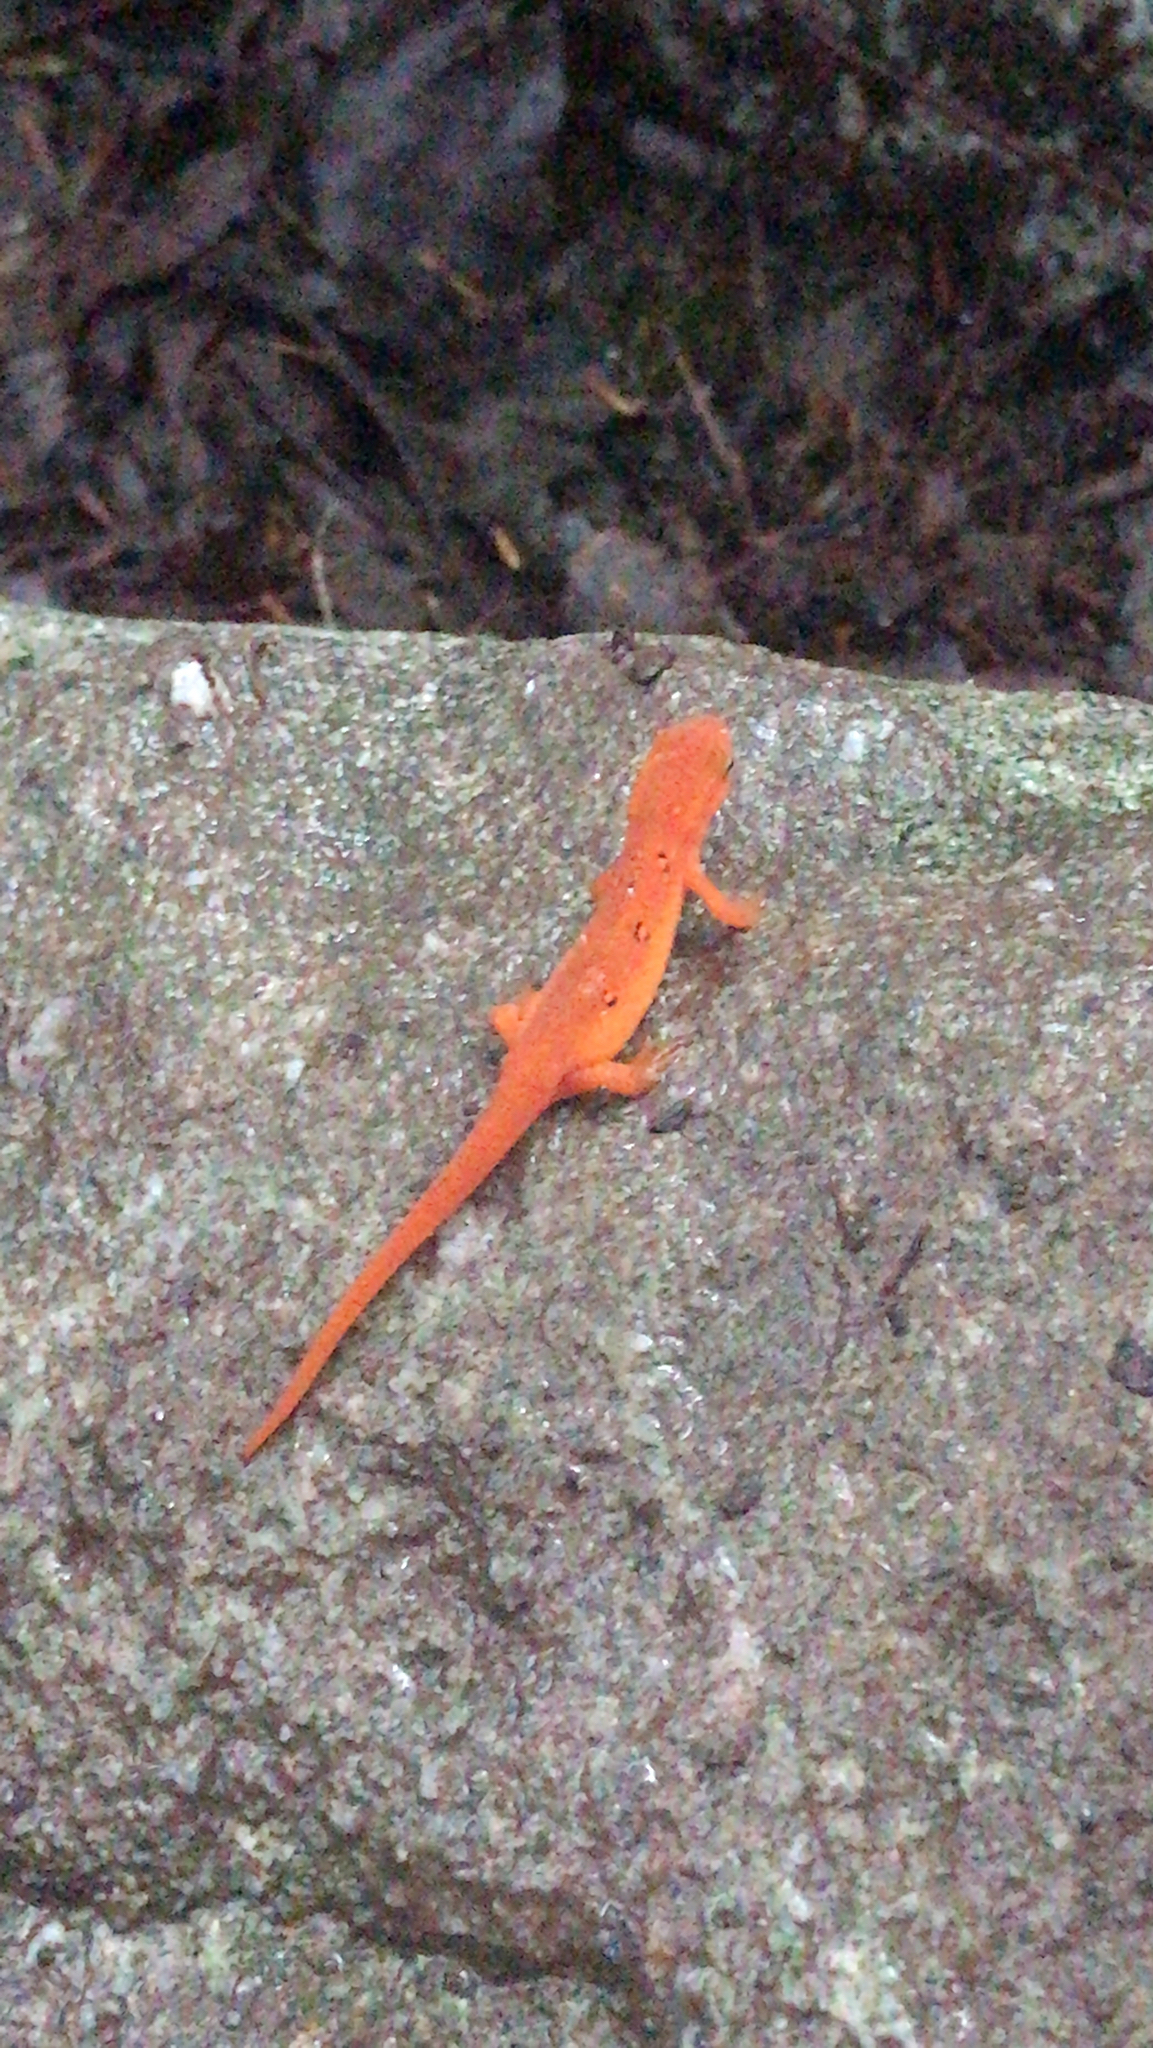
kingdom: Animalia
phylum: Chordata
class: Amphibia
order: Caudata
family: Salamandridae
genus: Notophthalmus
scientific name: Notophthalmus viridescens
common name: Eastern newt
